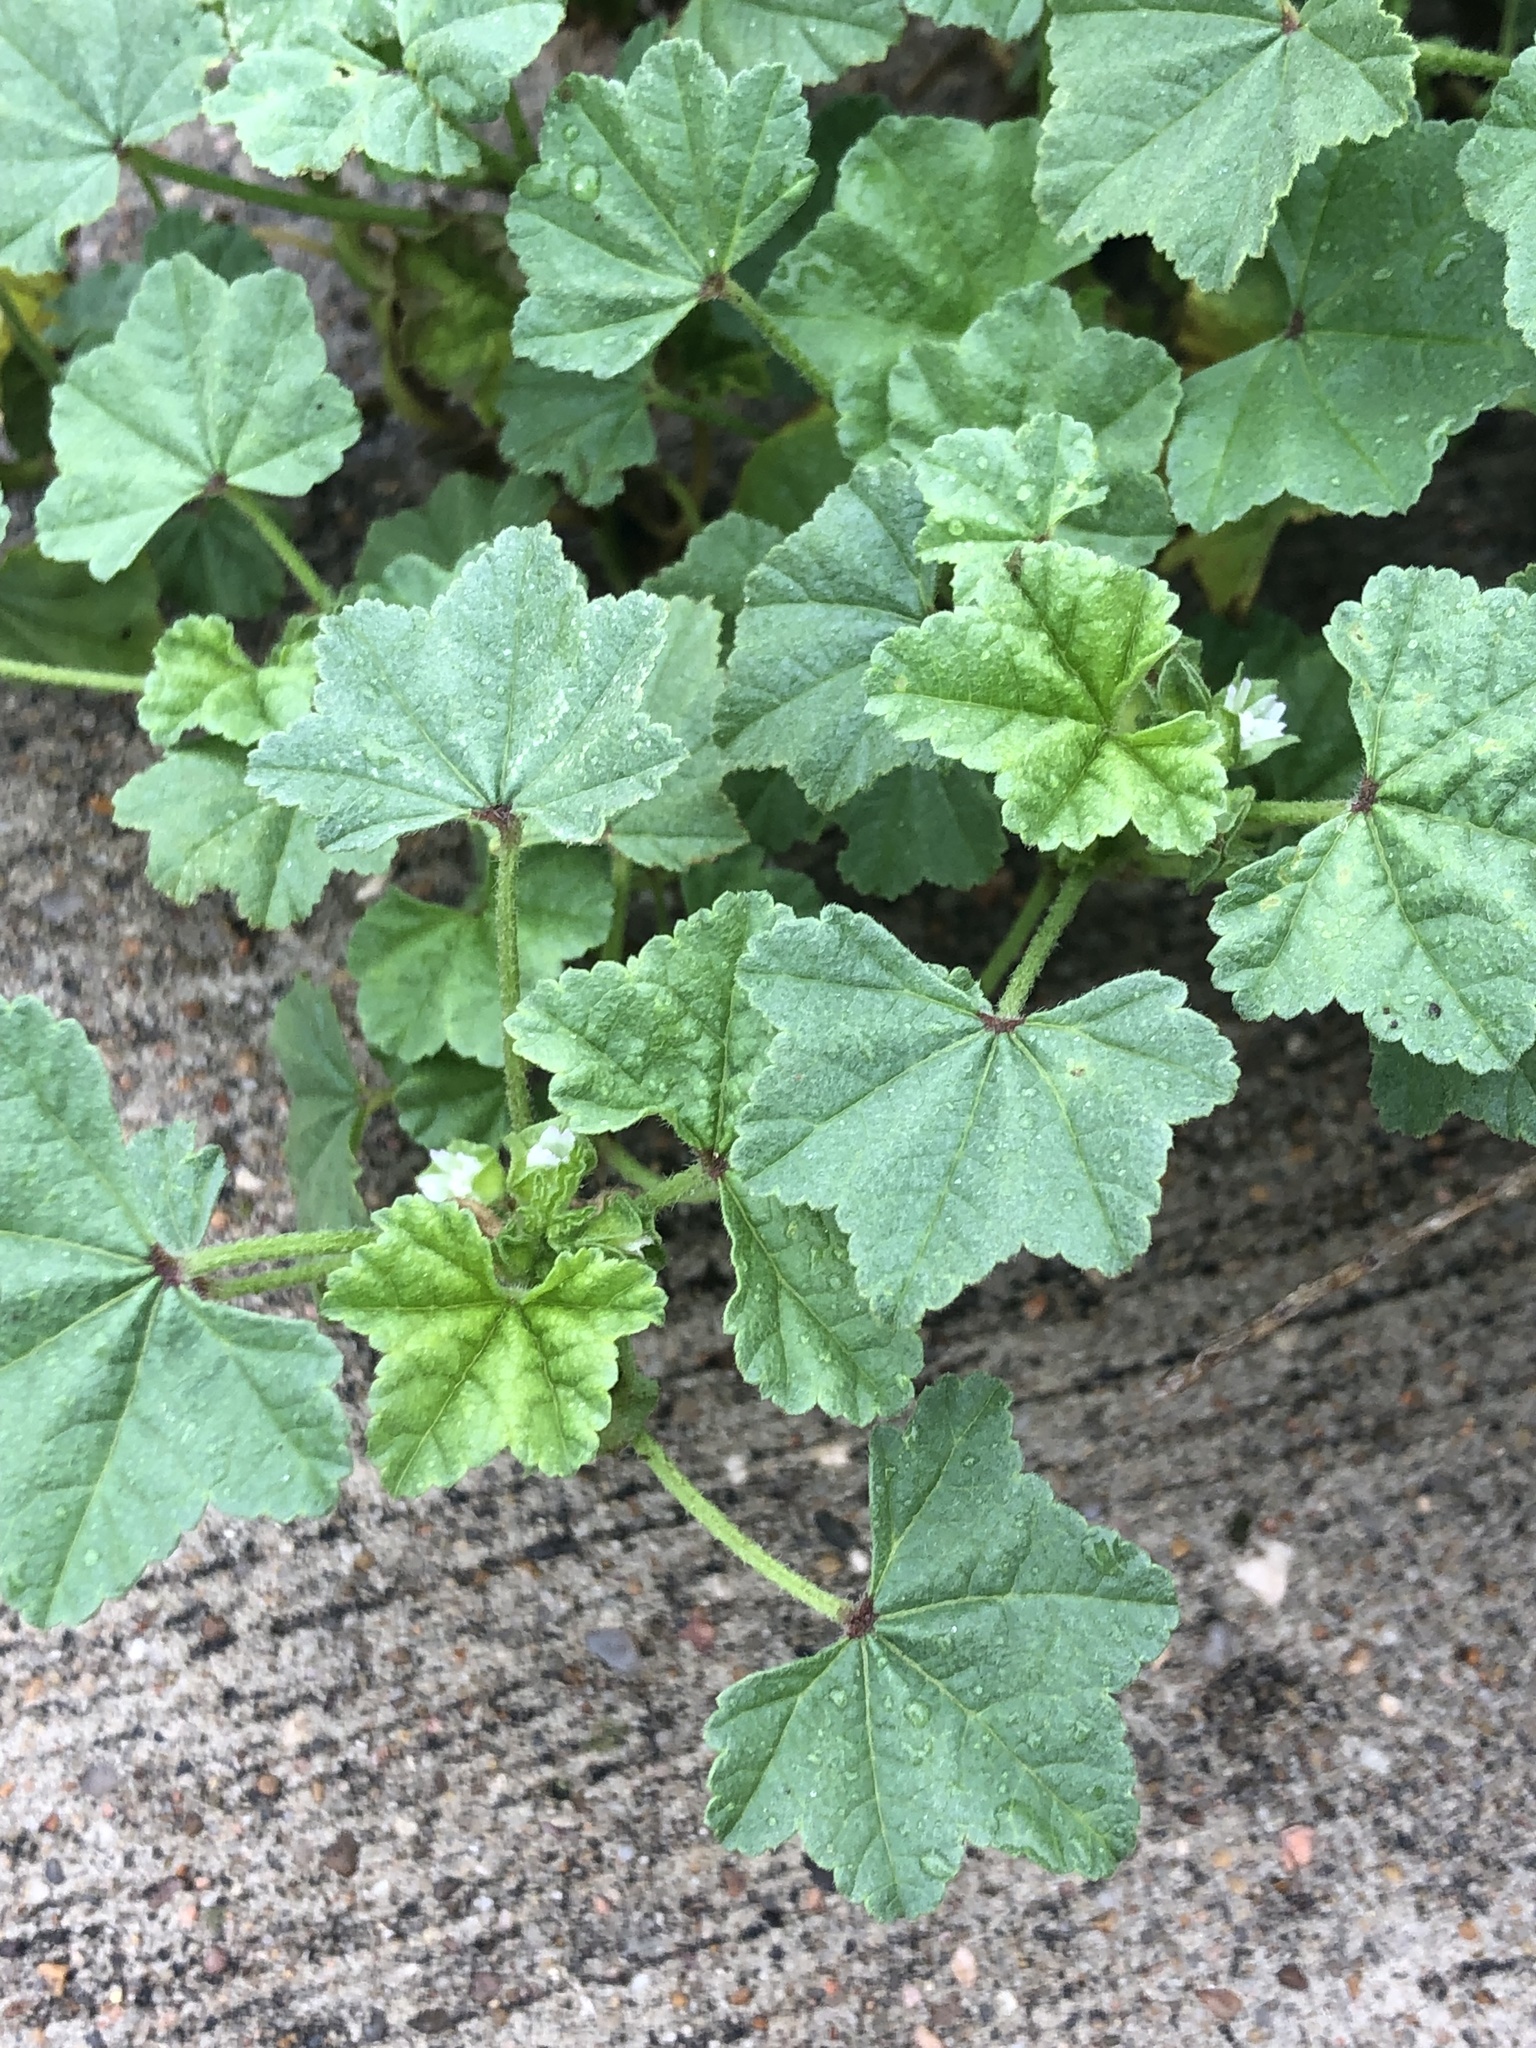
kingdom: Plantae
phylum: Tracheophyta
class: Magnoliopsida
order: Malvales
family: Malvaceae
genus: Malva
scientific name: Malva parviflora
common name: Least mallow
